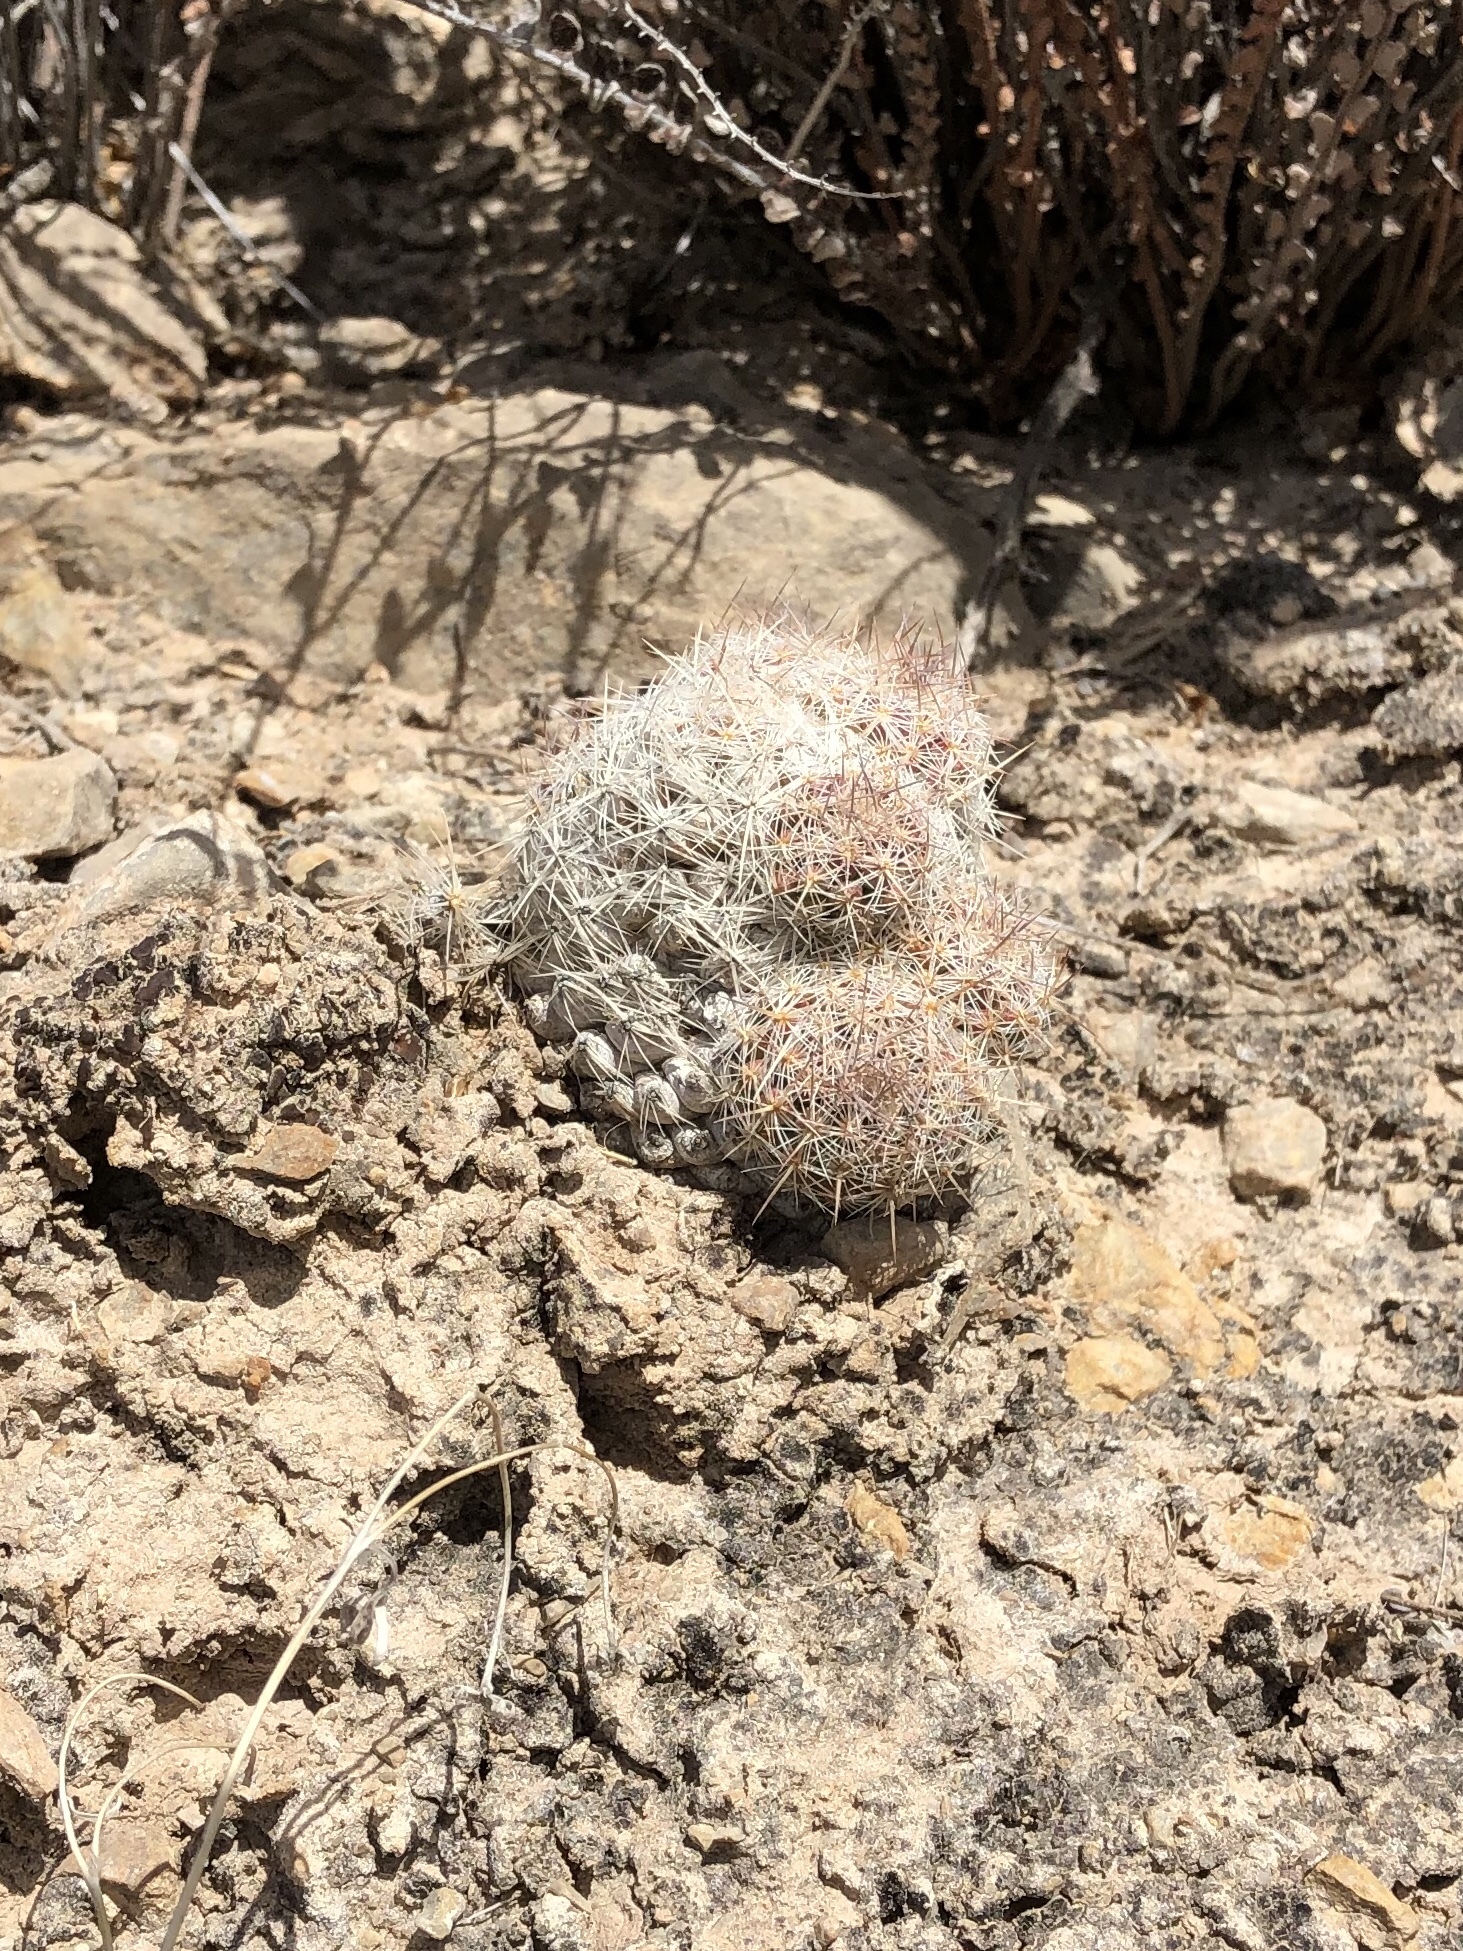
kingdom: Plantae
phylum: Tracheophyta
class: Magnoliopsida
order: Caryophyllales
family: Cactaceae
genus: Pelecyphora
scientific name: Pelecyphora tuberculosa
